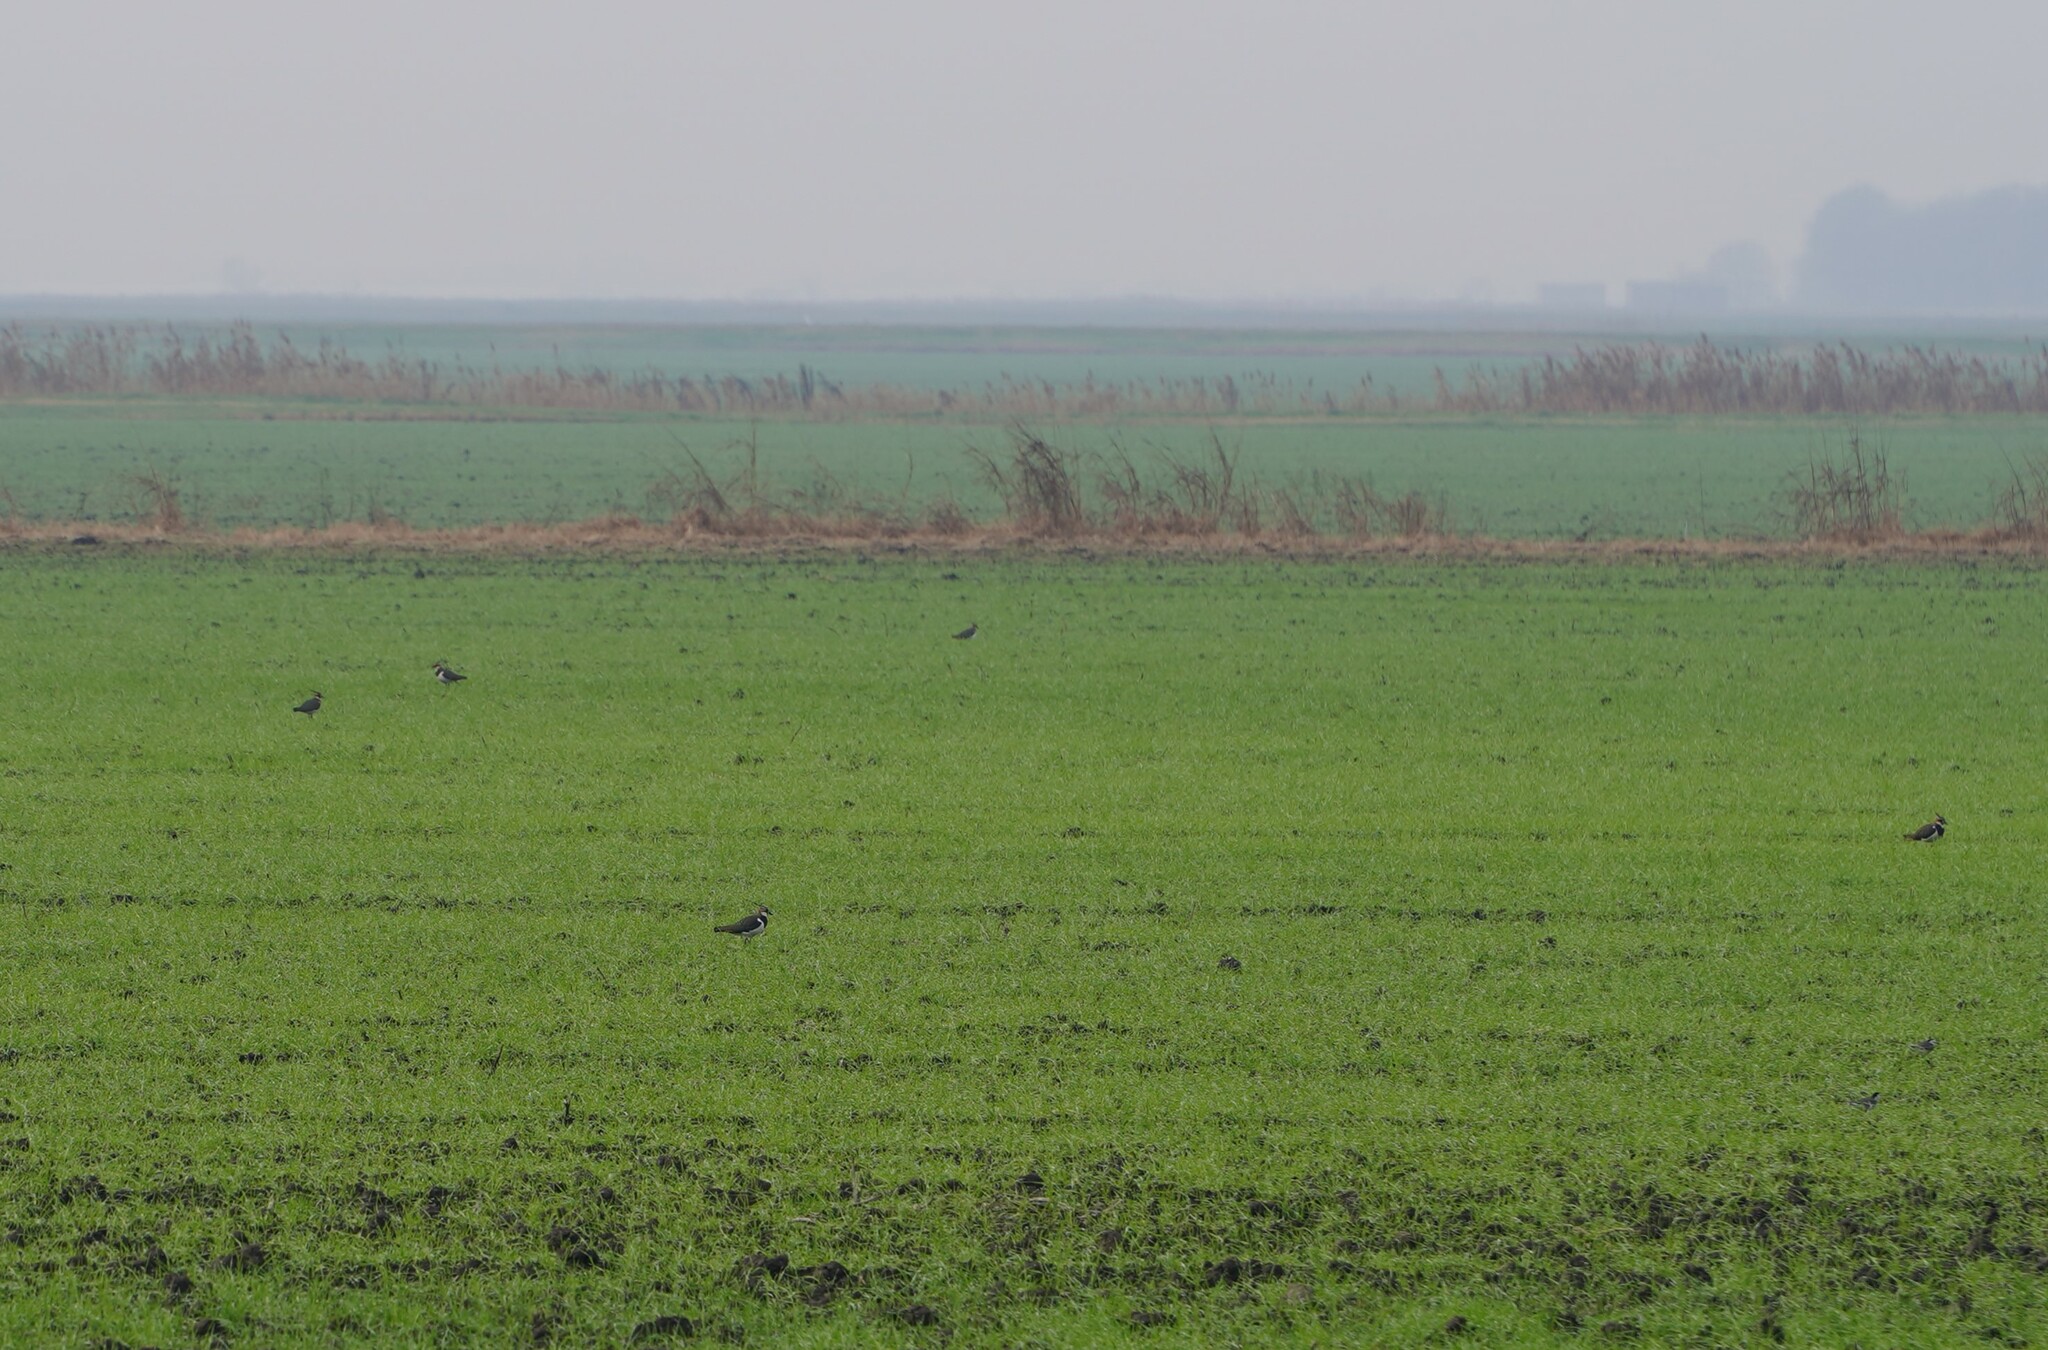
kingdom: Animalia
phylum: Chordata
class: Aves
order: Charadriiformes
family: Charadriidae
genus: Vanellus
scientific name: Vanellus vanellus
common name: Northern lapwing
